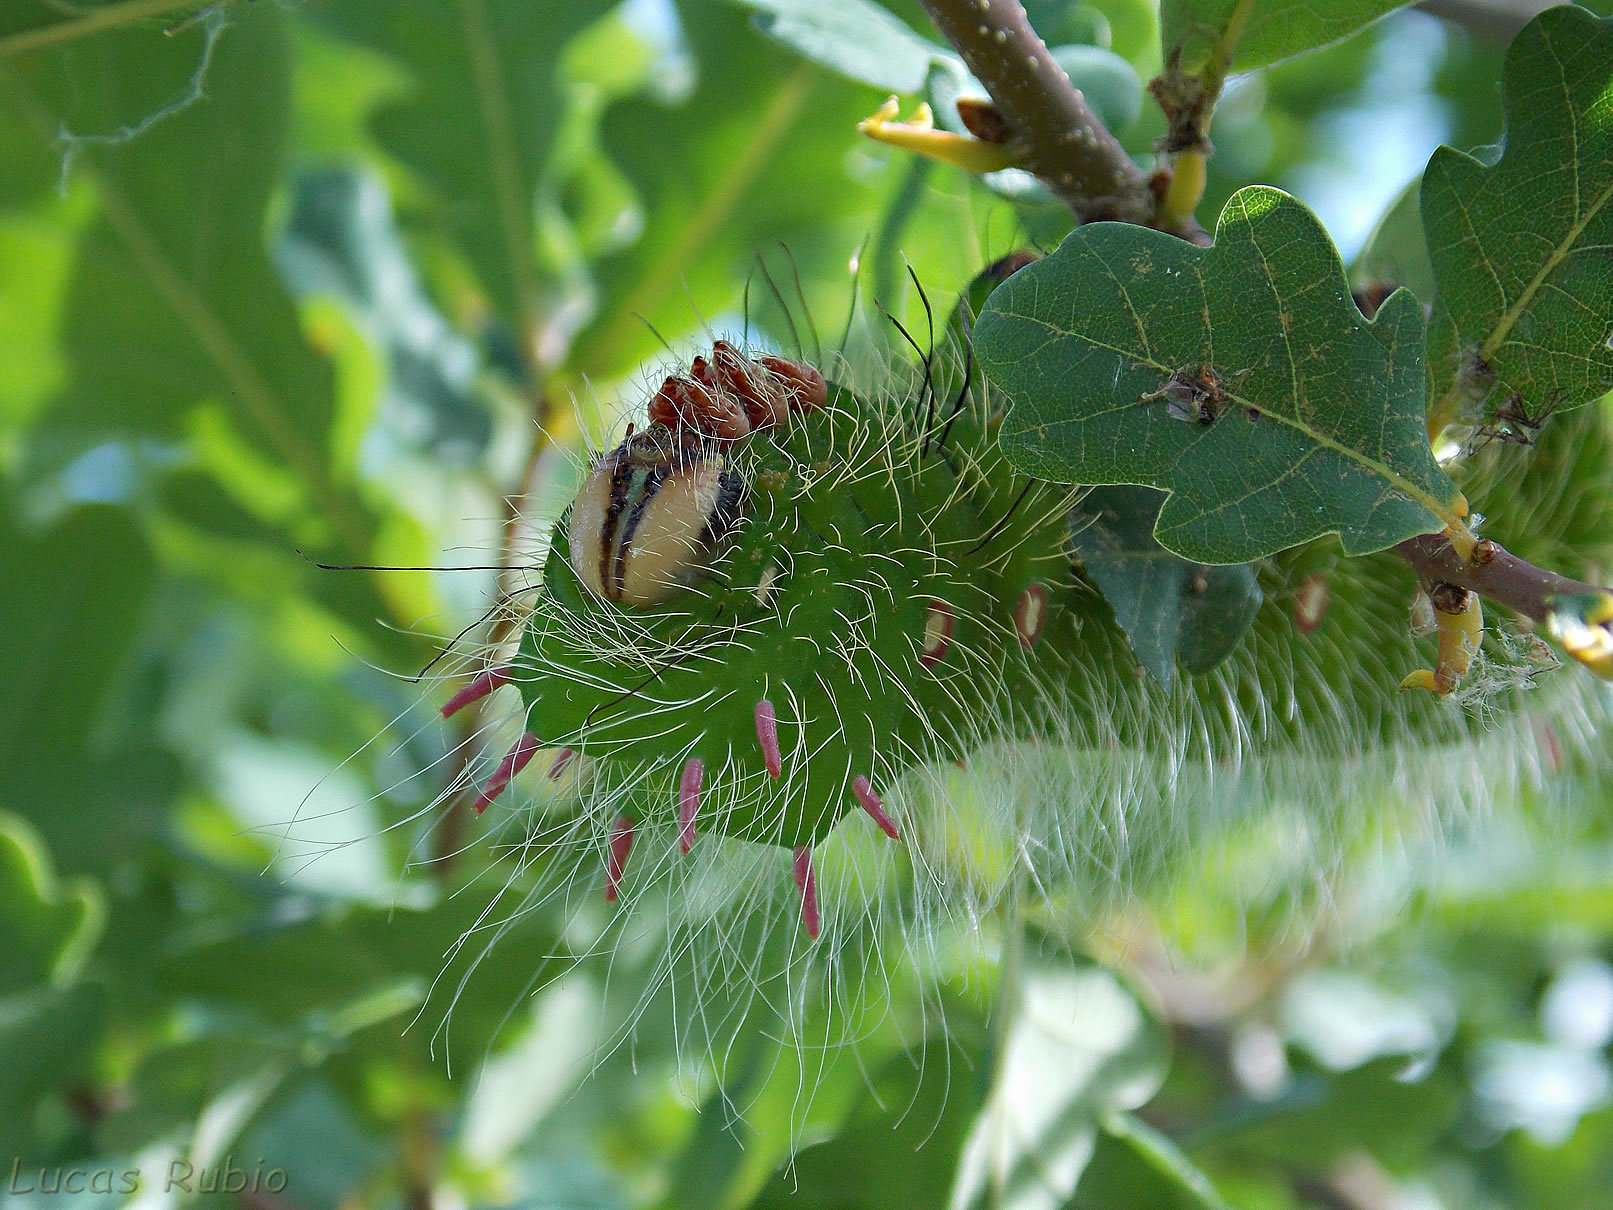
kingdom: Animalia
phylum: Arthropoda
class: Insecta
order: Lepidoptera
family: Saturniidae
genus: Eacles
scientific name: Eacles imperialis
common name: Imperial moth
